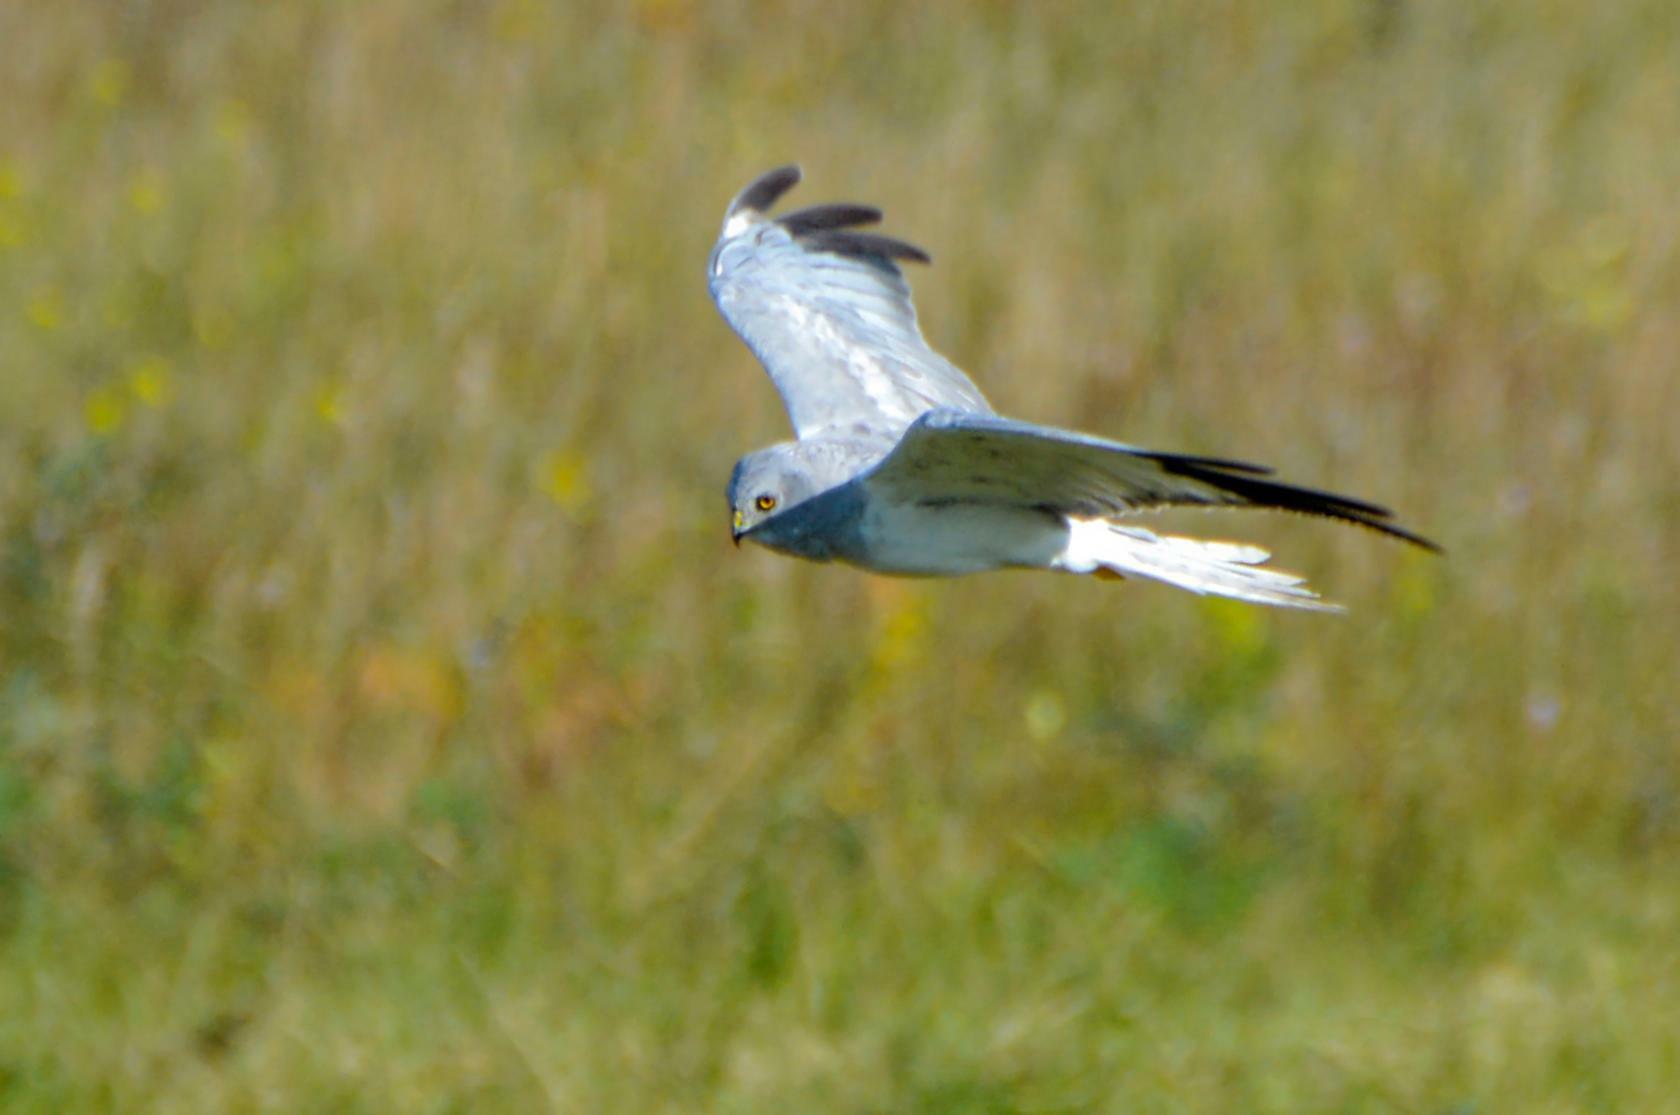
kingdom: Animalia
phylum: Chordata
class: Aves
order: Accipitriformes
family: Accipitridae
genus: Circus
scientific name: Circus cyaneus
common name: Hen harrier
